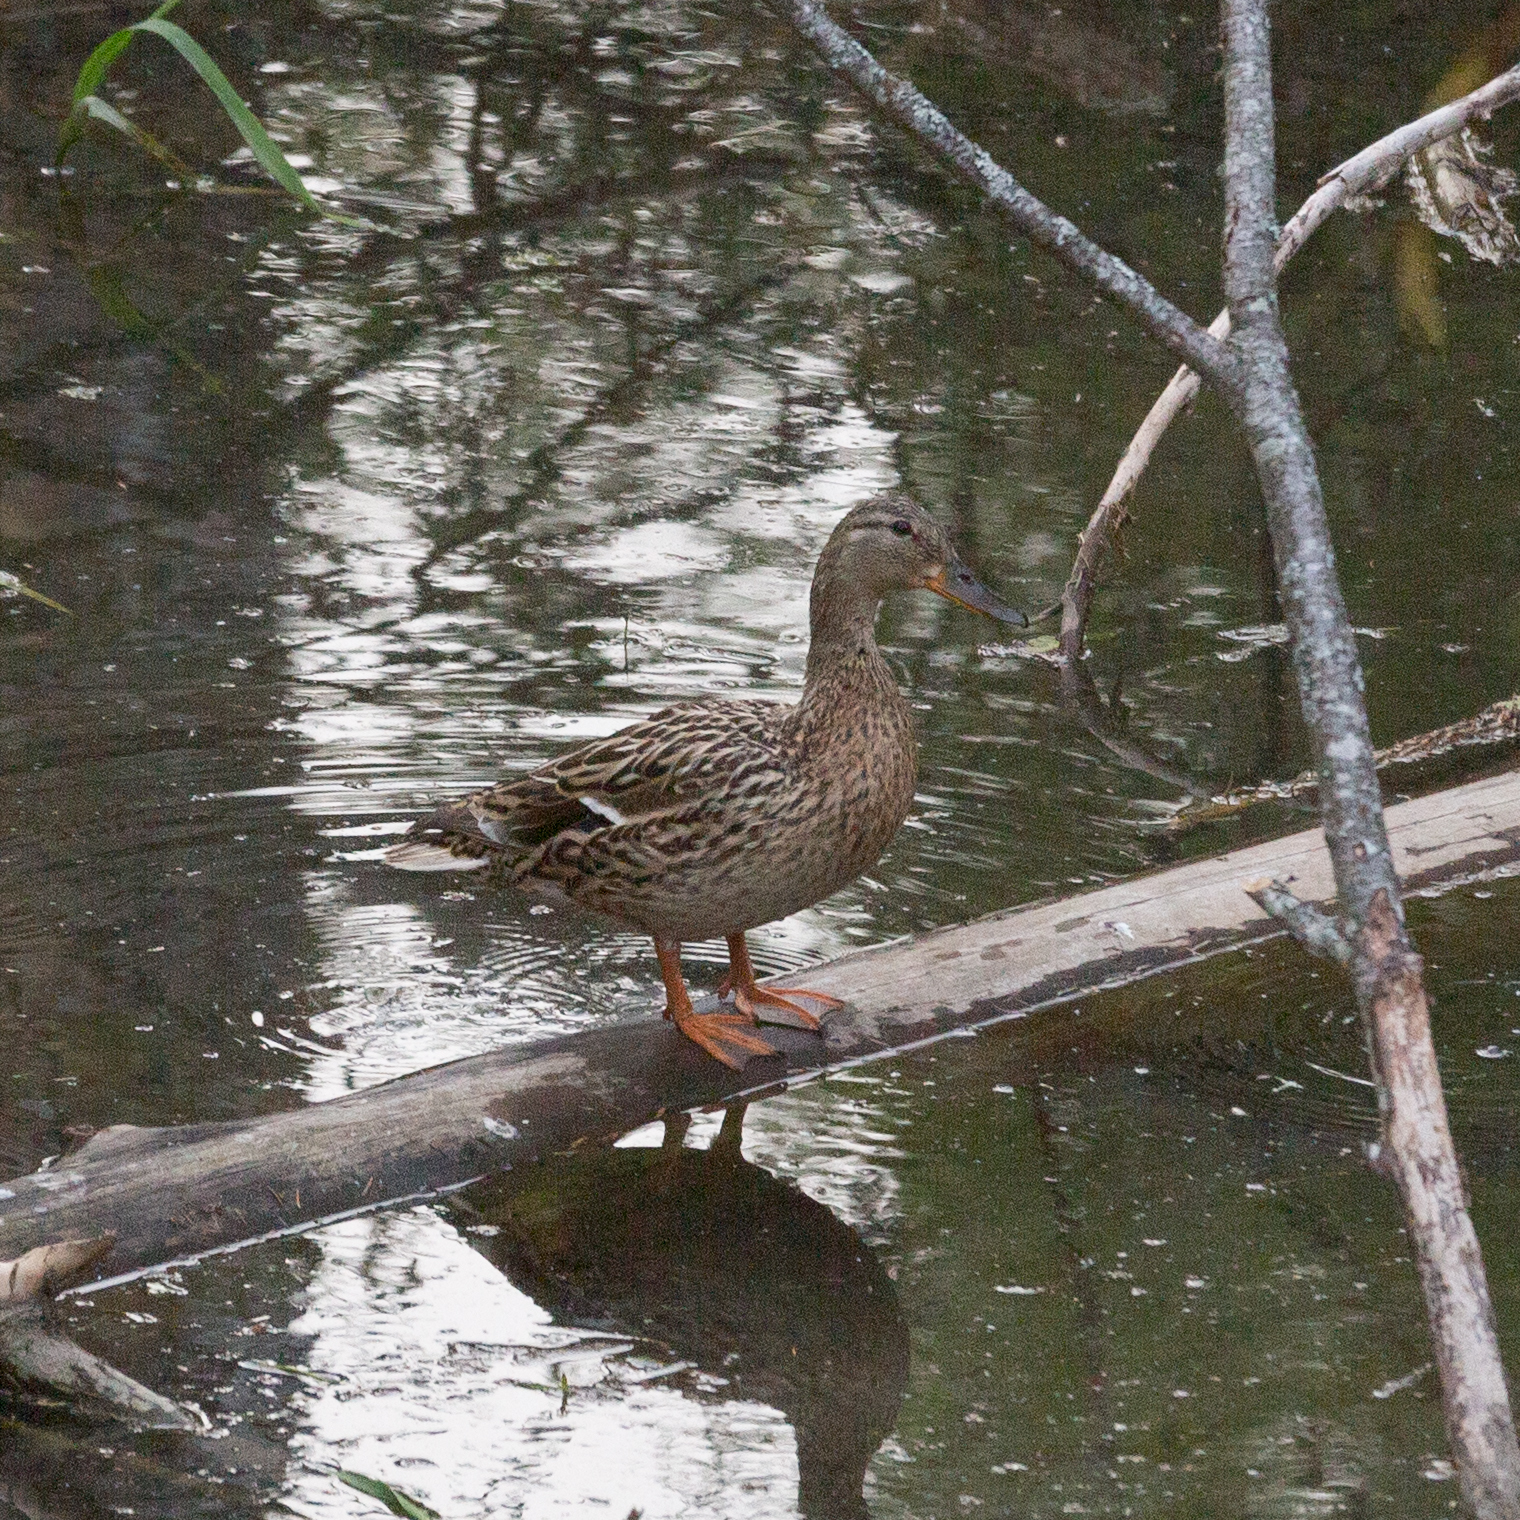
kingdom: Animalia
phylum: Chordata
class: Aves
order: Anseriformes
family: Anatidae
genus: Anas
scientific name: Anas platyrhynchos
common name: Mallard
